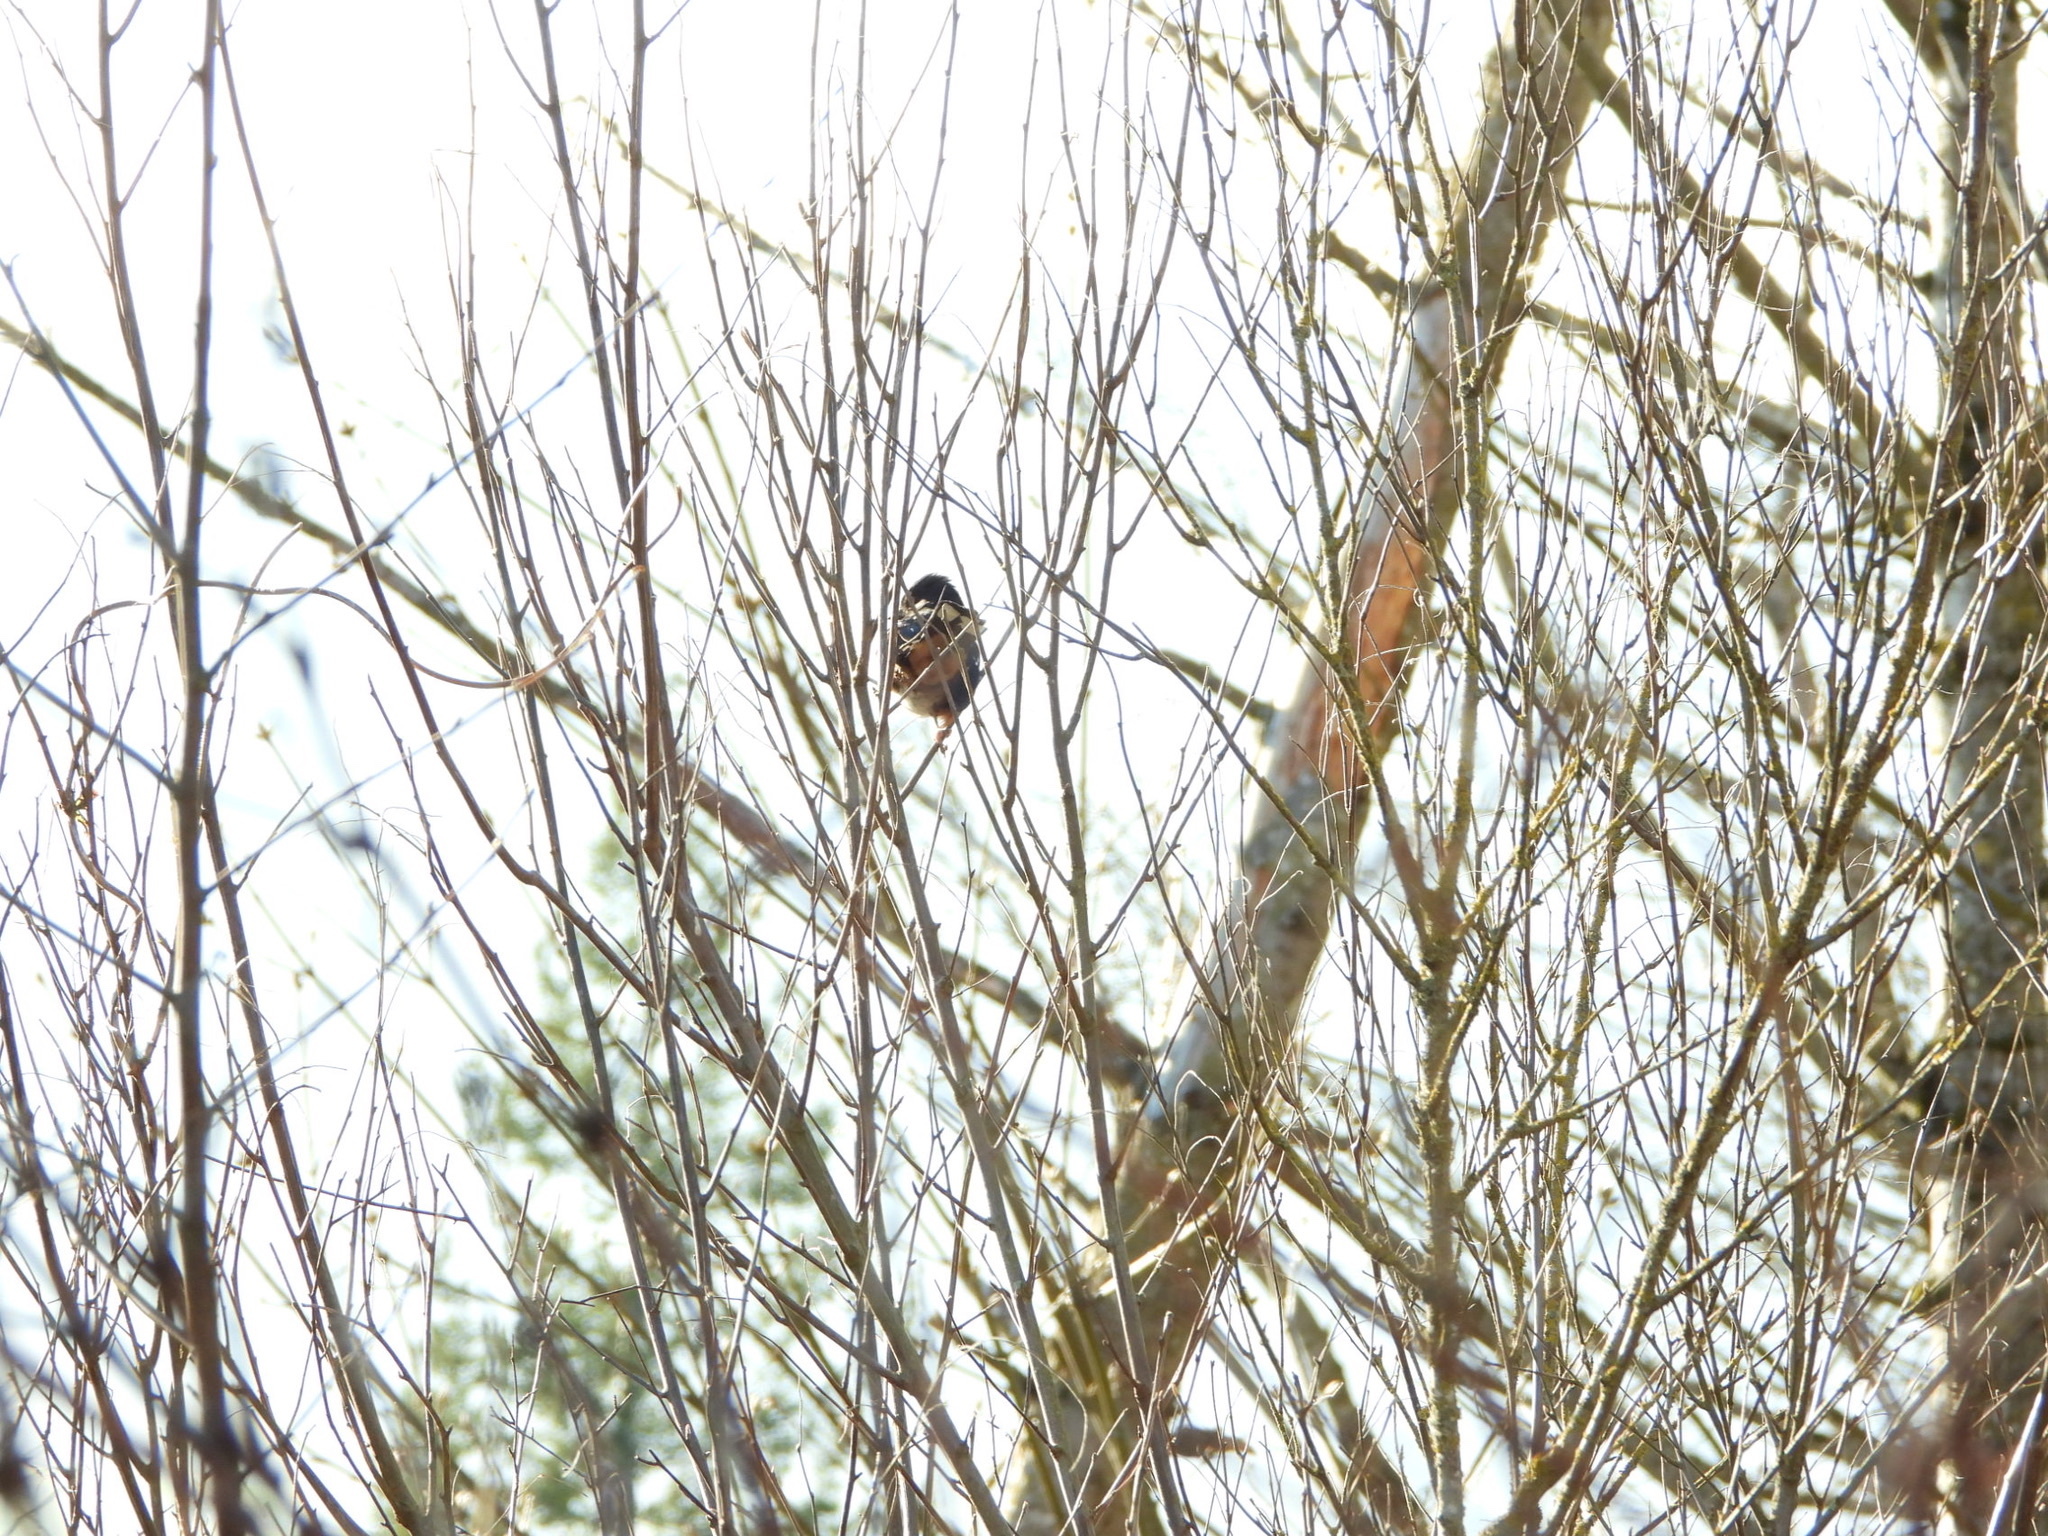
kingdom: Animalia
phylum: Chordata
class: Aves
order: Passeriformes
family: Passerellidae
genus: Pipilo
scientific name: Pipilo maculatus
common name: Spotted towhee
